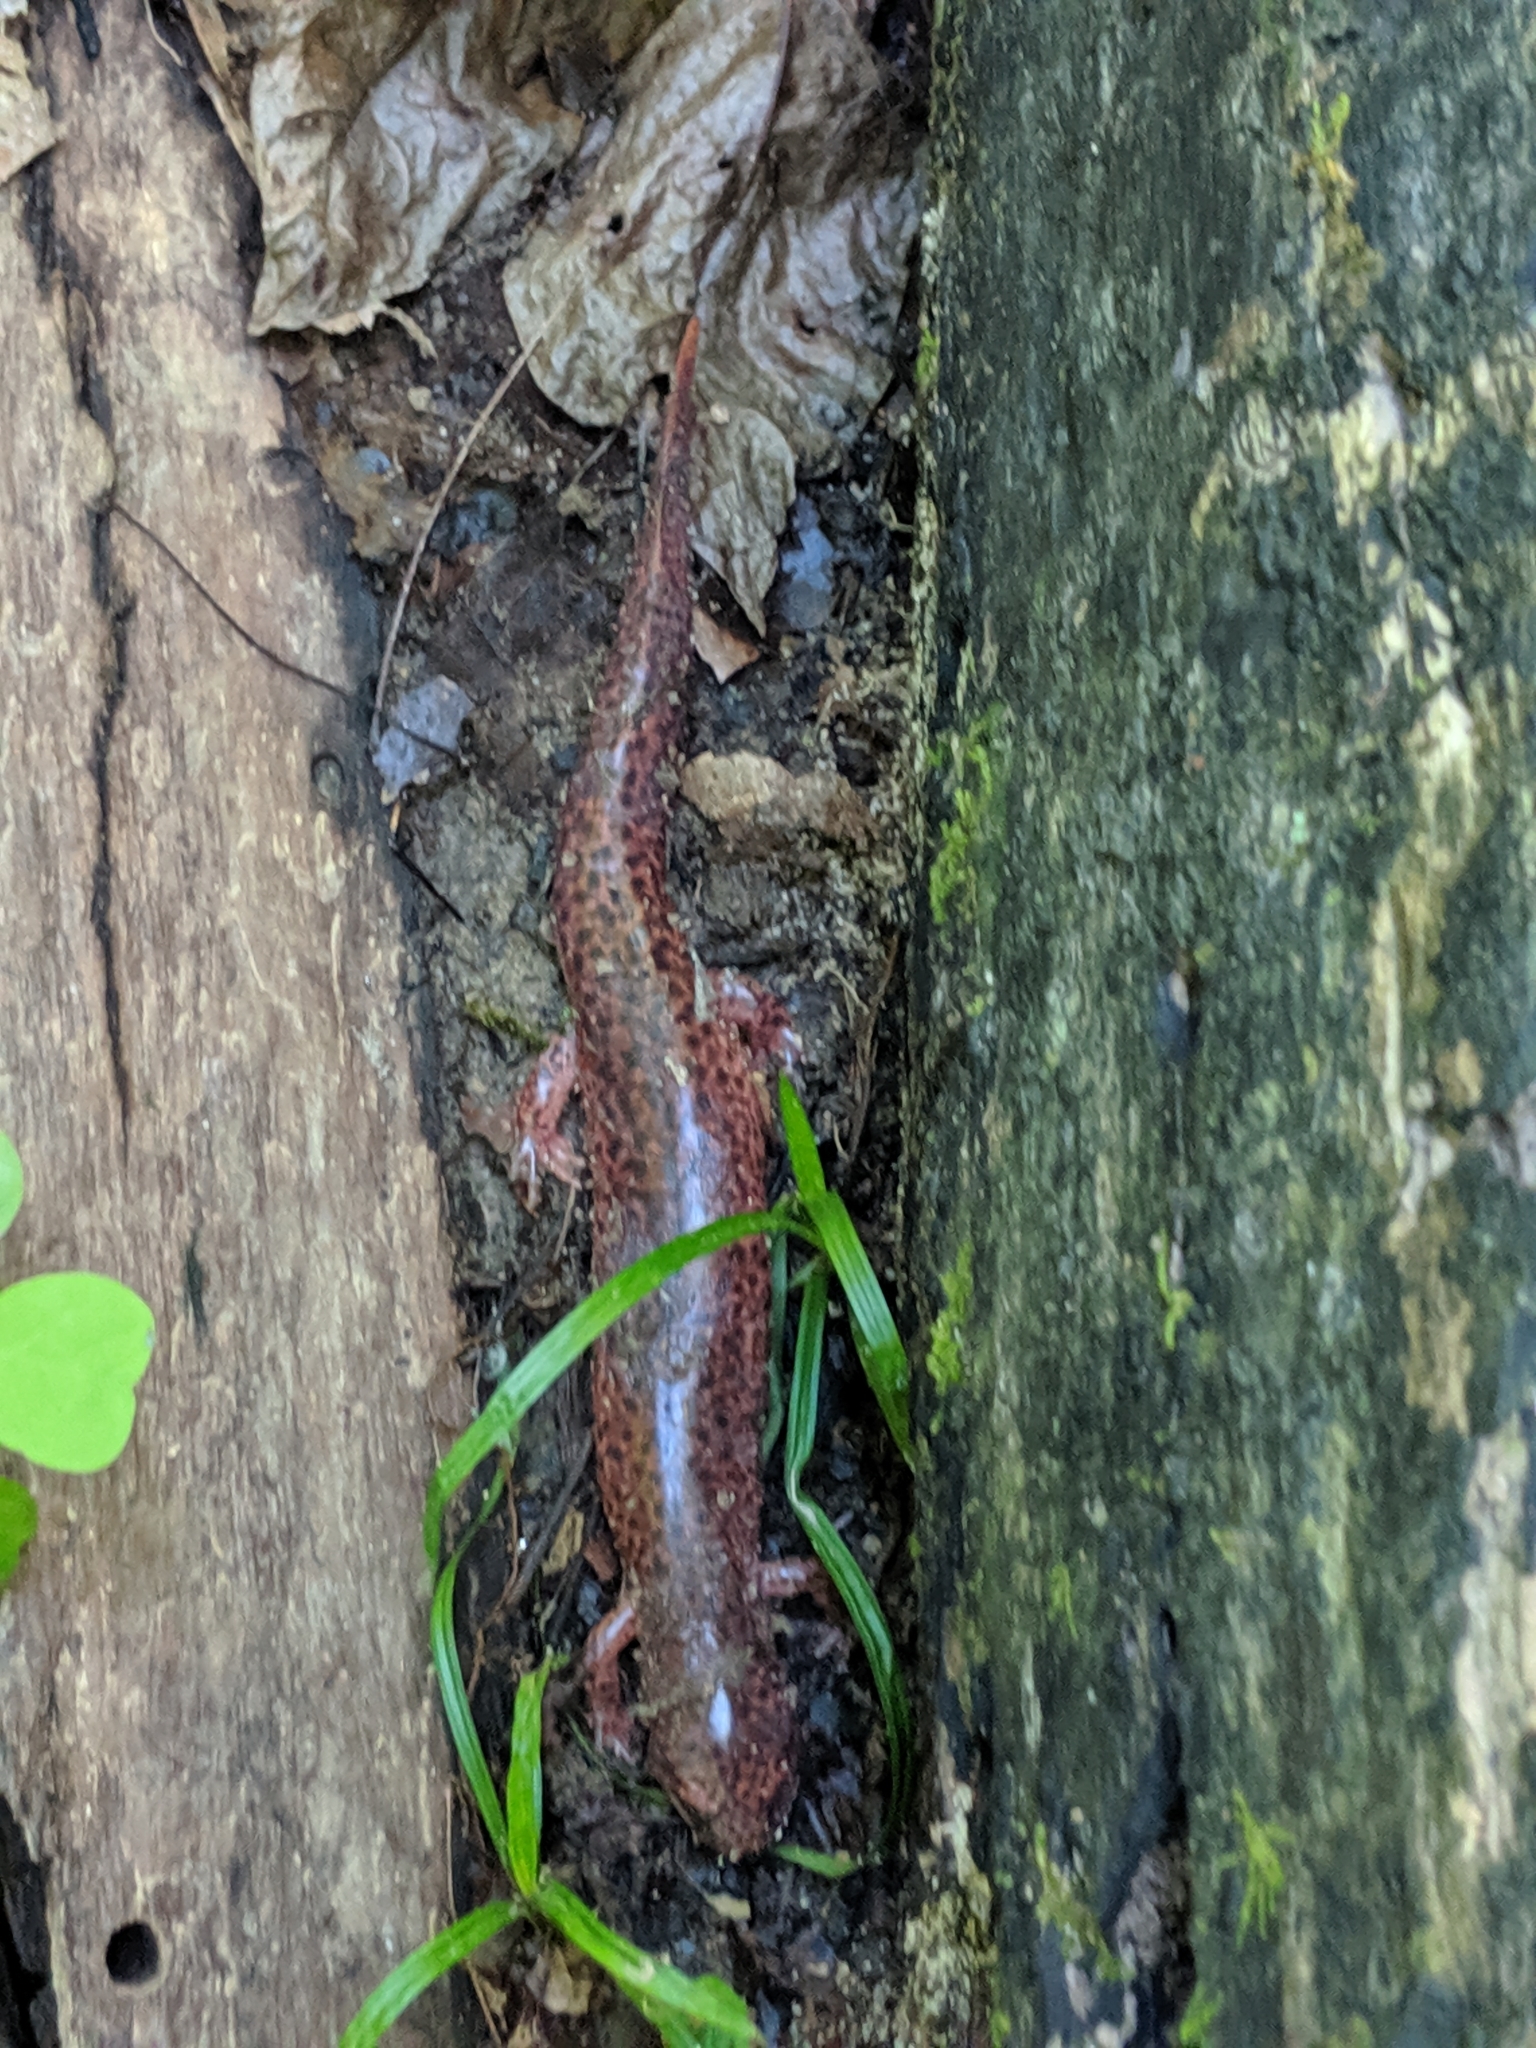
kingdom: Animalia
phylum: Chordata
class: Amphibia
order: Caudata
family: Plethodontidae
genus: Pseudotriton
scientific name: Pseudotriton ruber
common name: Red salamander
